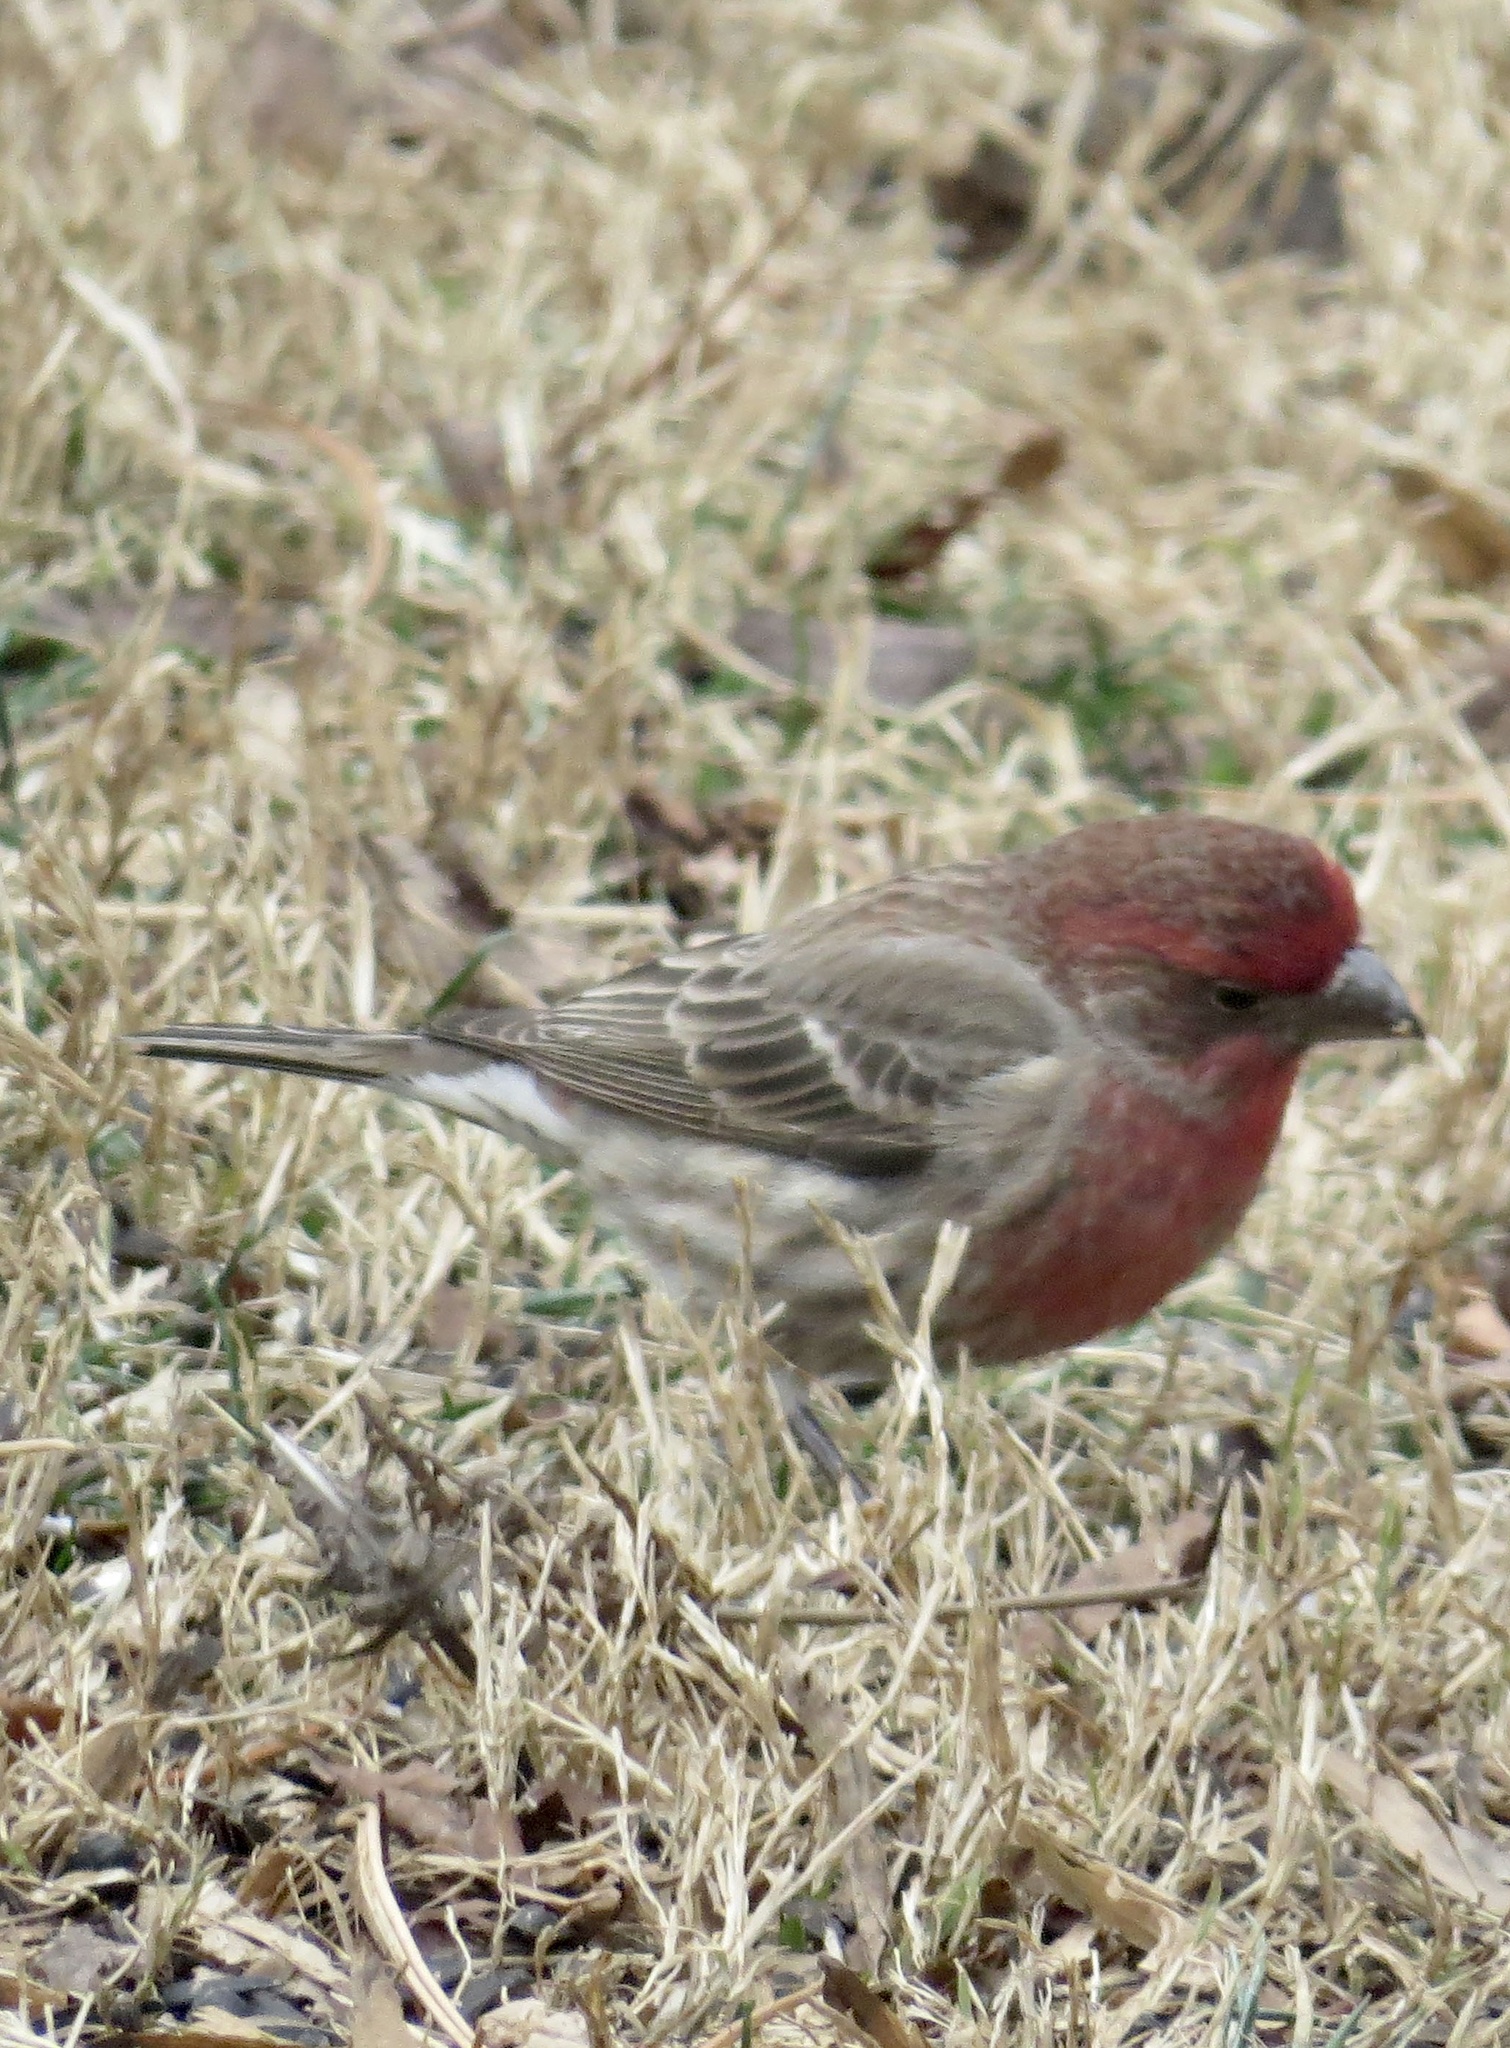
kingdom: Animalia
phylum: Chordata
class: Aves
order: Passeriformes
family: Fringillidae
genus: Haemorhous
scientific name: Haemorhous mexicanus
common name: House finch
